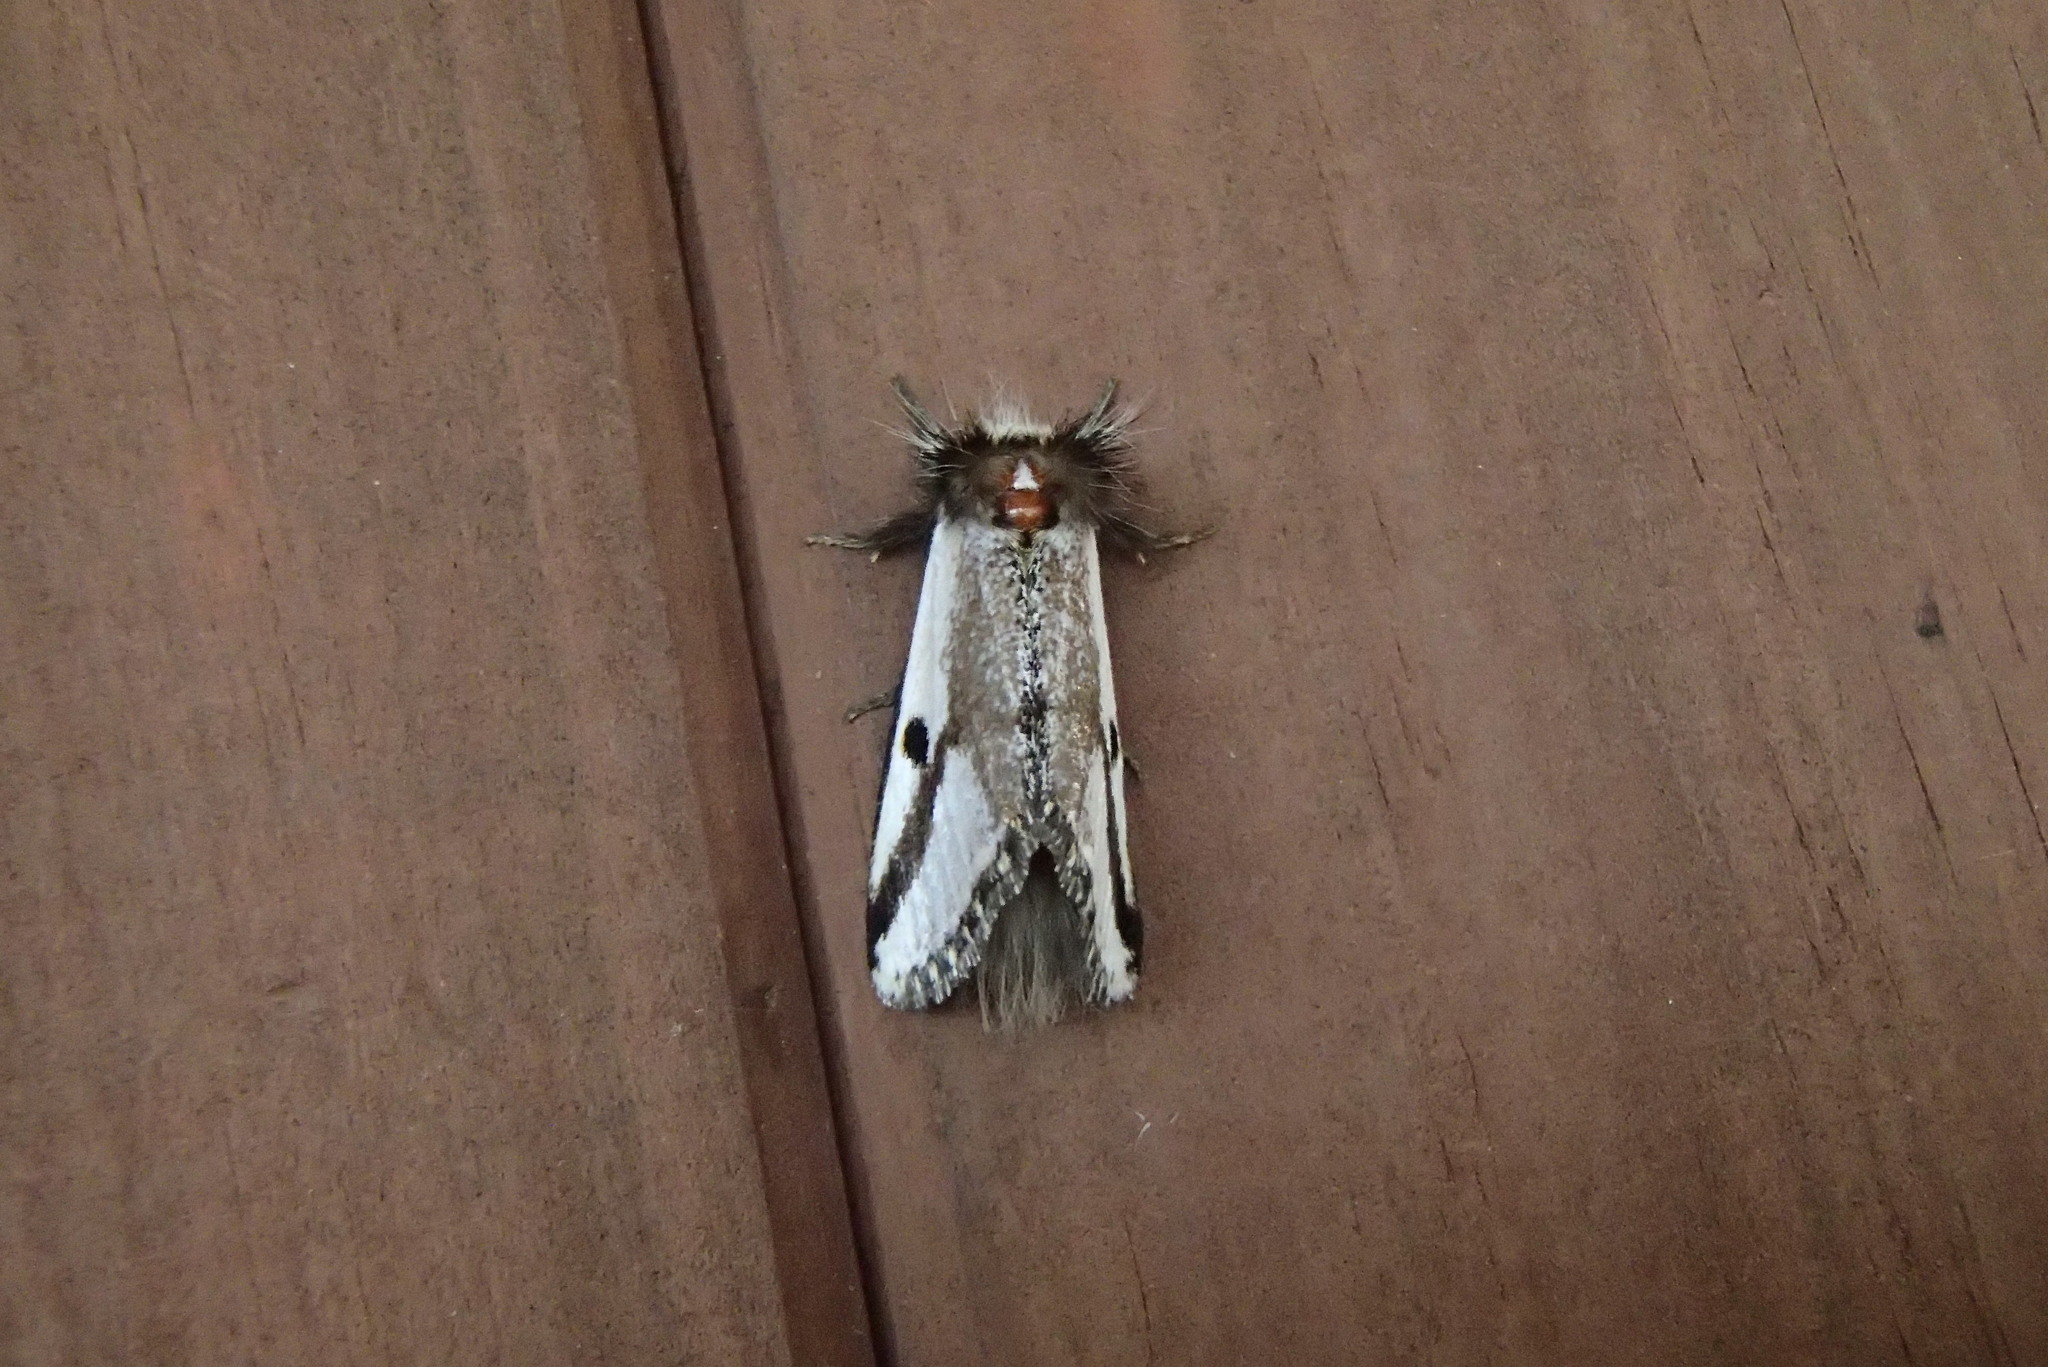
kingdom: Animalia
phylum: Arthropoda
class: Insecta
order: Lepidoptera
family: Notodontidae
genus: Epicoma
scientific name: Epicoma melanospila
